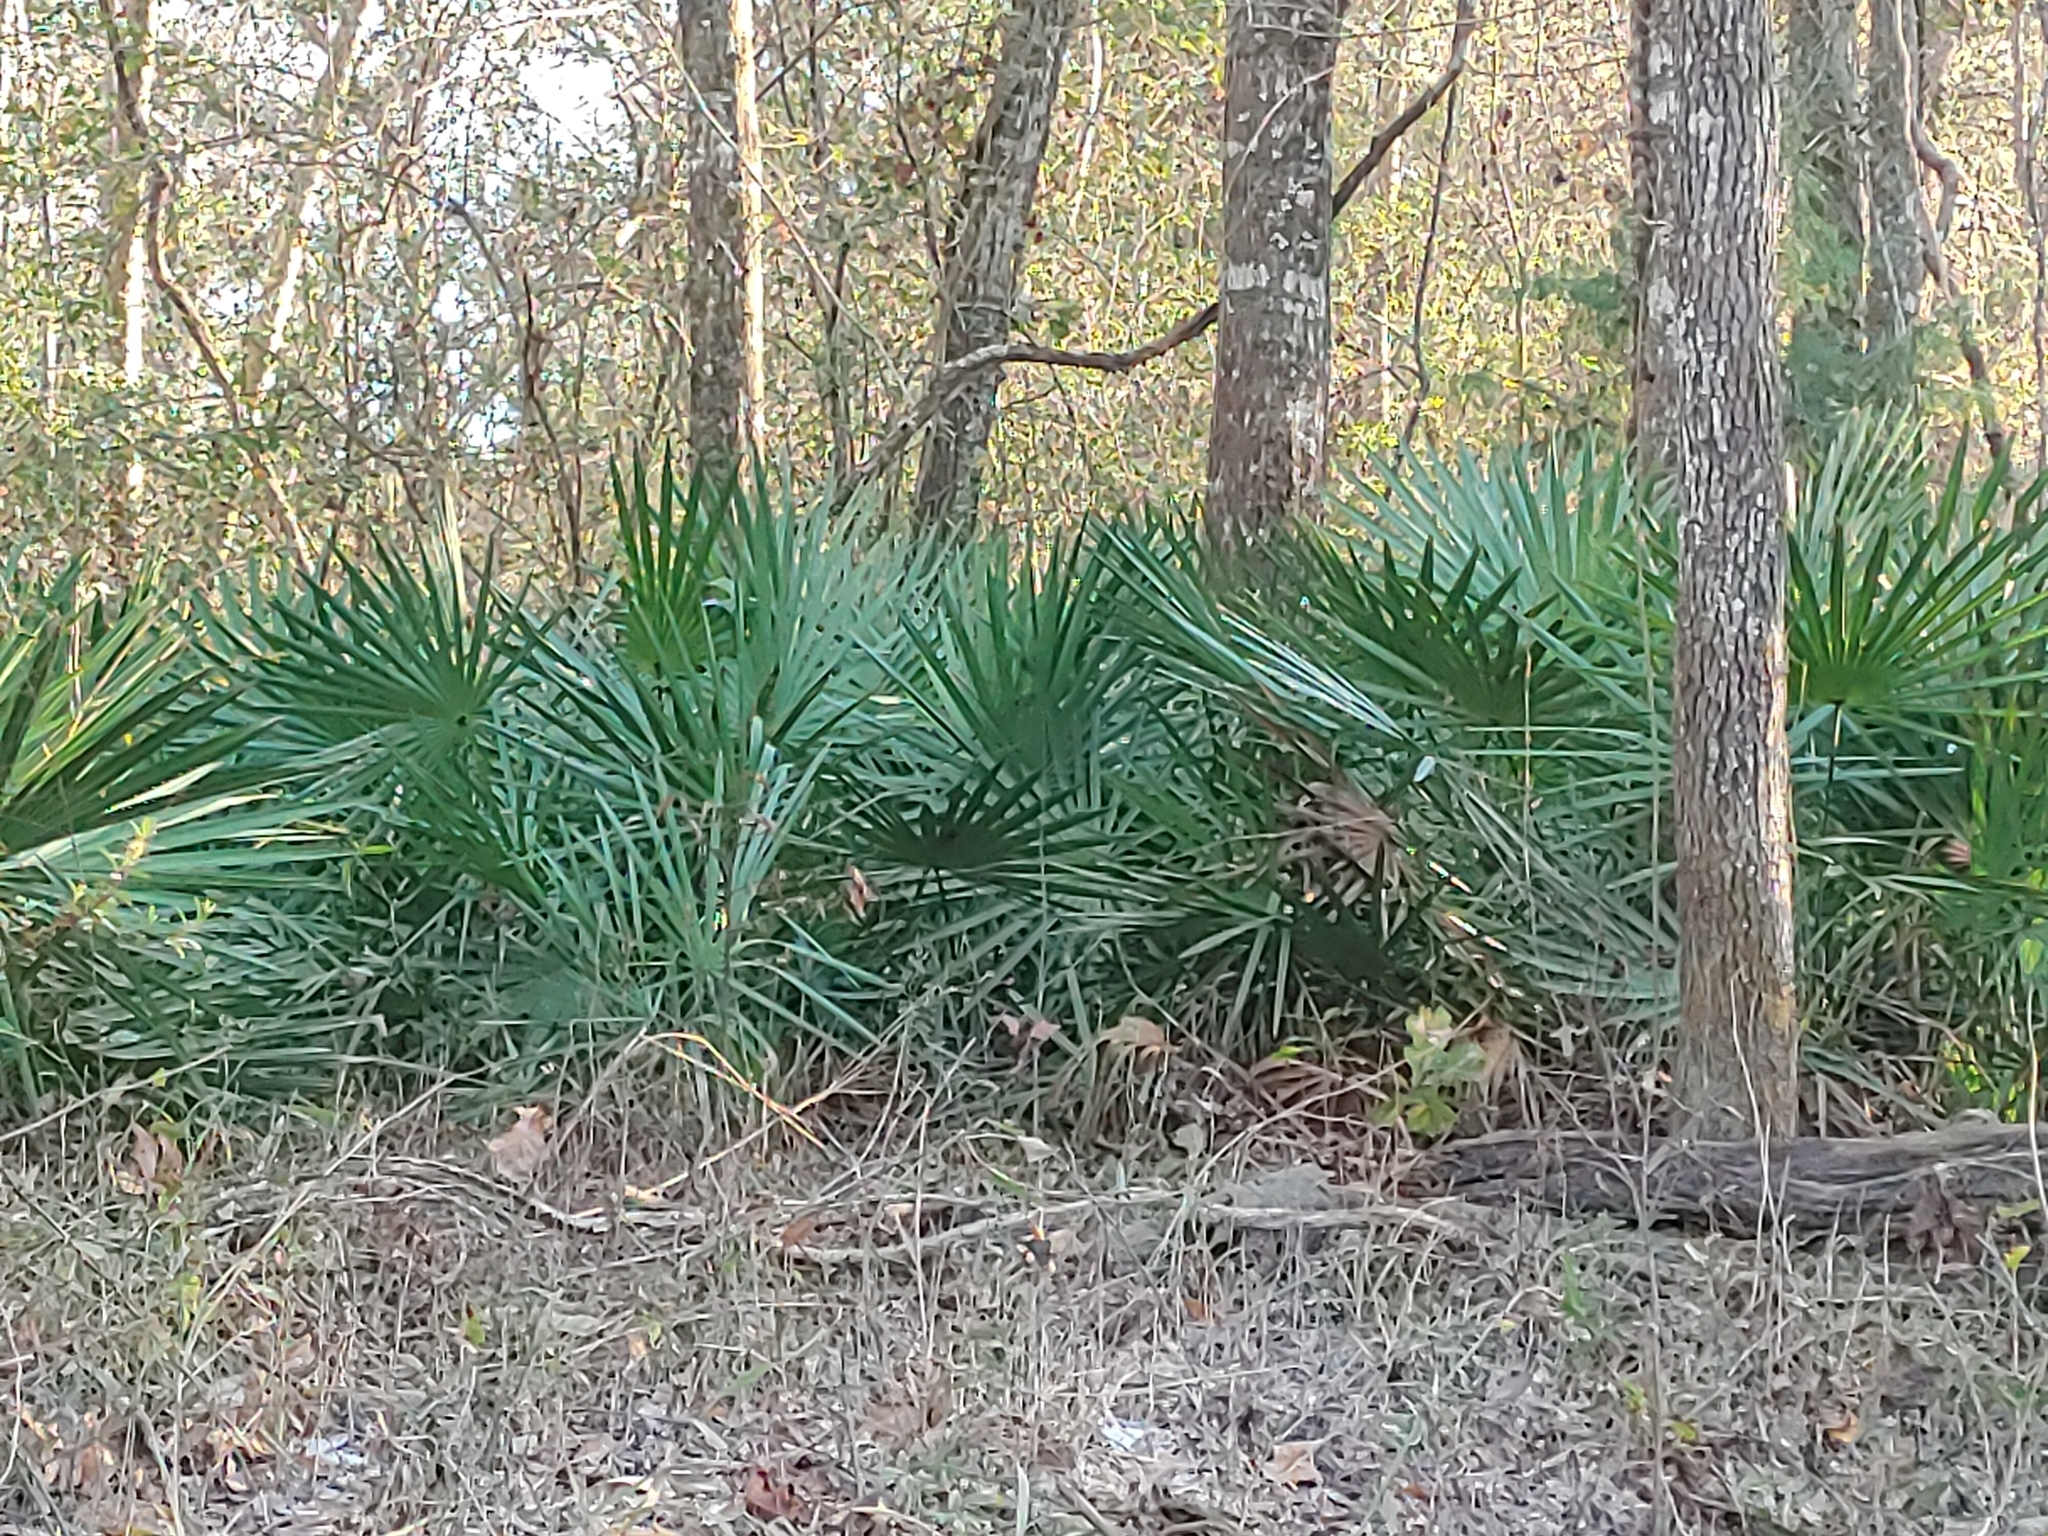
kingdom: Plantae
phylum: Tracheophyta
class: Liliopsida
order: Arecales
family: Arecaceae
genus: Serenoa
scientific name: Serenoa repens
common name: Saw-palmetto
